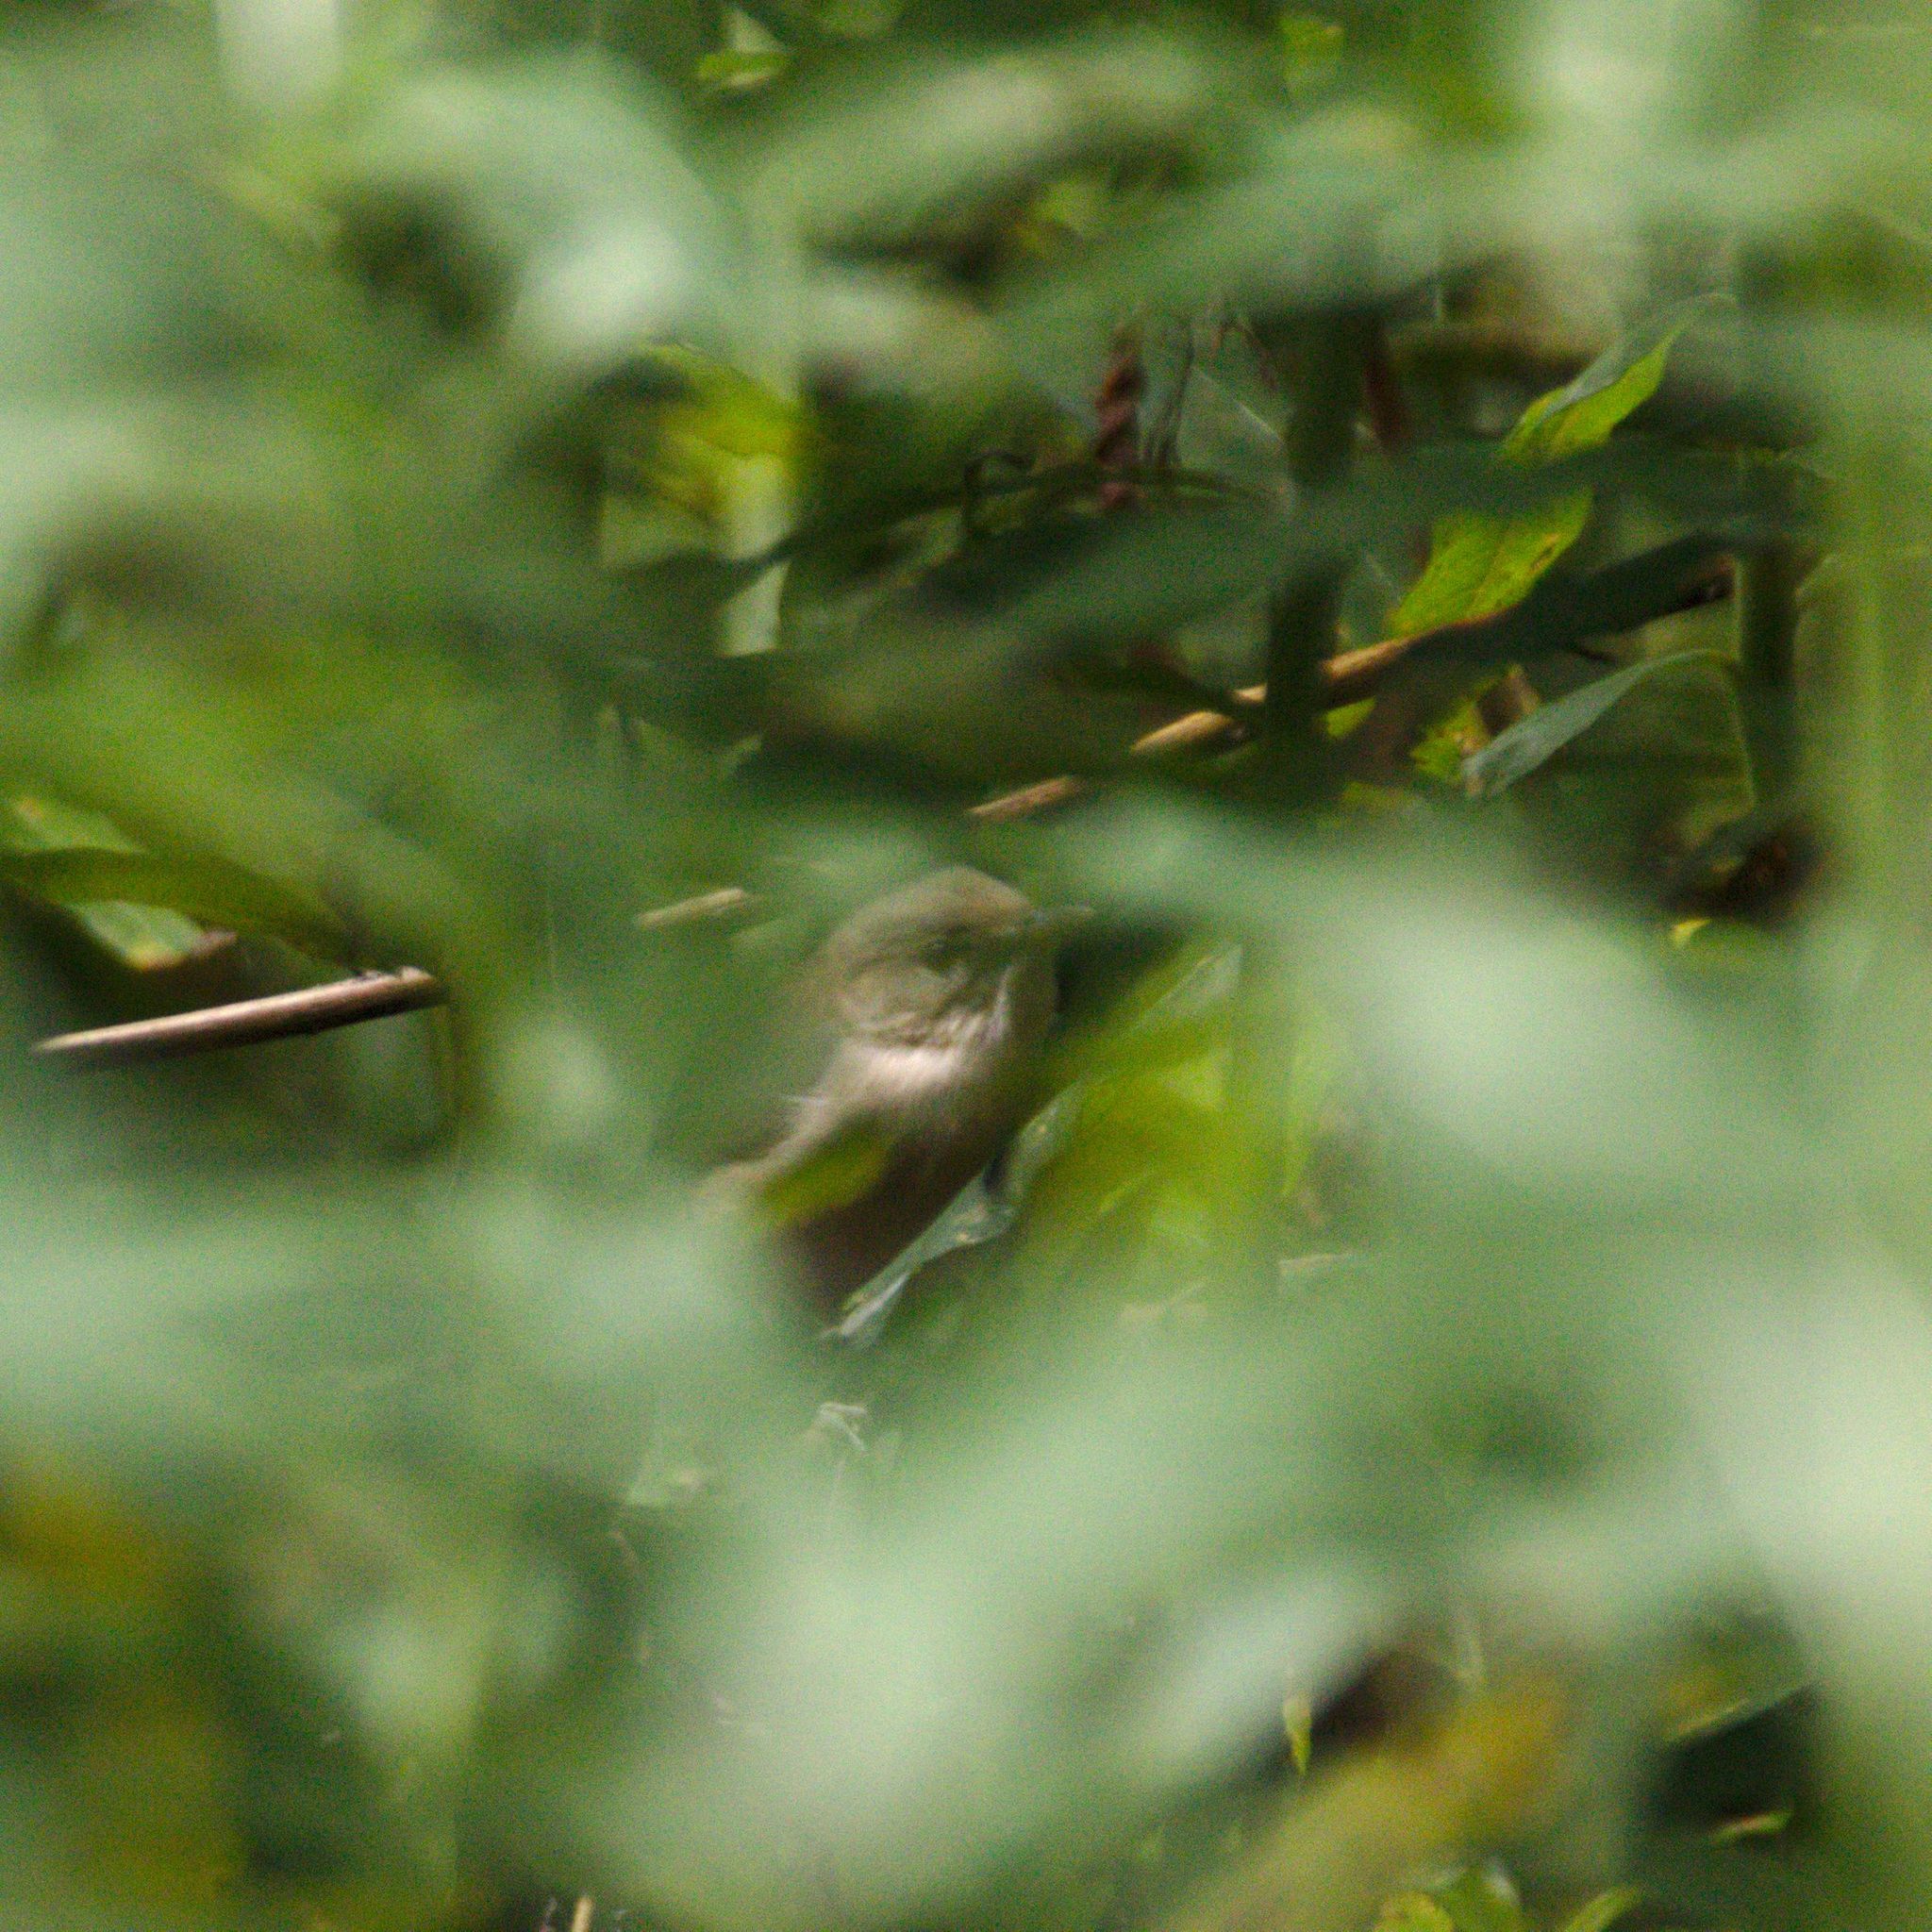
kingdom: Animalia
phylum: Chordata
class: Aves
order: Passeriformes
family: Acrocephalidae
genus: Acrocephalus
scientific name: Acrocephalus dumetorum
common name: Blyth's reed warbler
